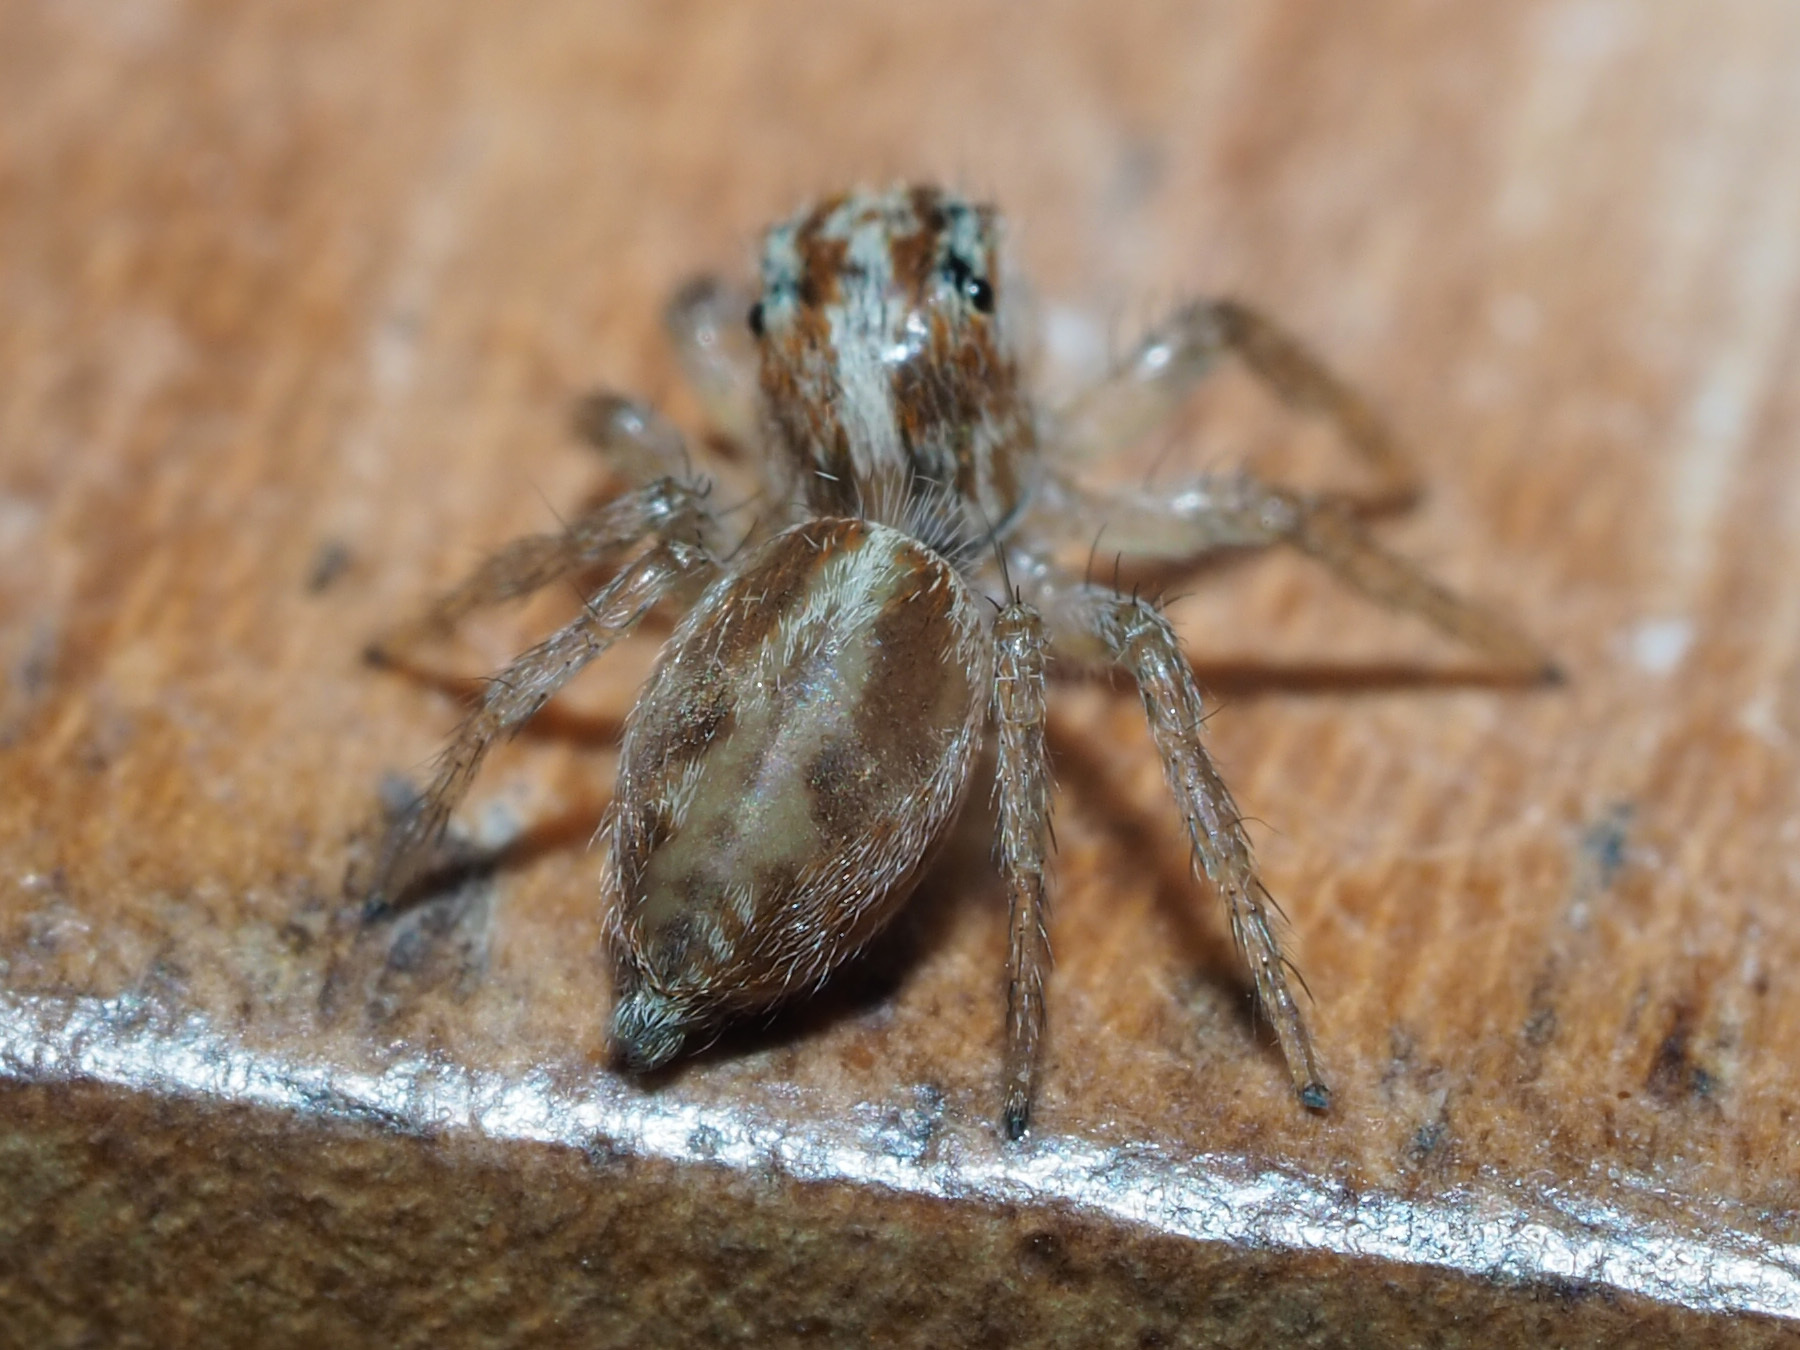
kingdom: Animalia
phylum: Arthropoda
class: Arachnida
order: Araneae
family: Salticidae
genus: Frigga
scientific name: Frigga crocuta
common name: Jumping spiders
